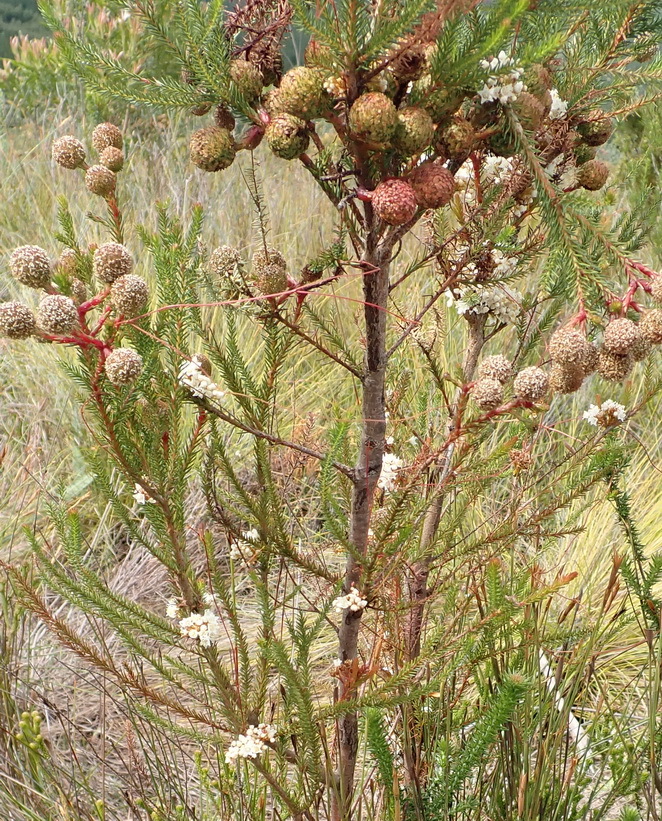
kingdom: Plantae
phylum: Tracheophyta
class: Magnoliopsida
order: Solanales
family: Convolvulaceae
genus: Cuscuta
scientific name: Cuscuta africana
